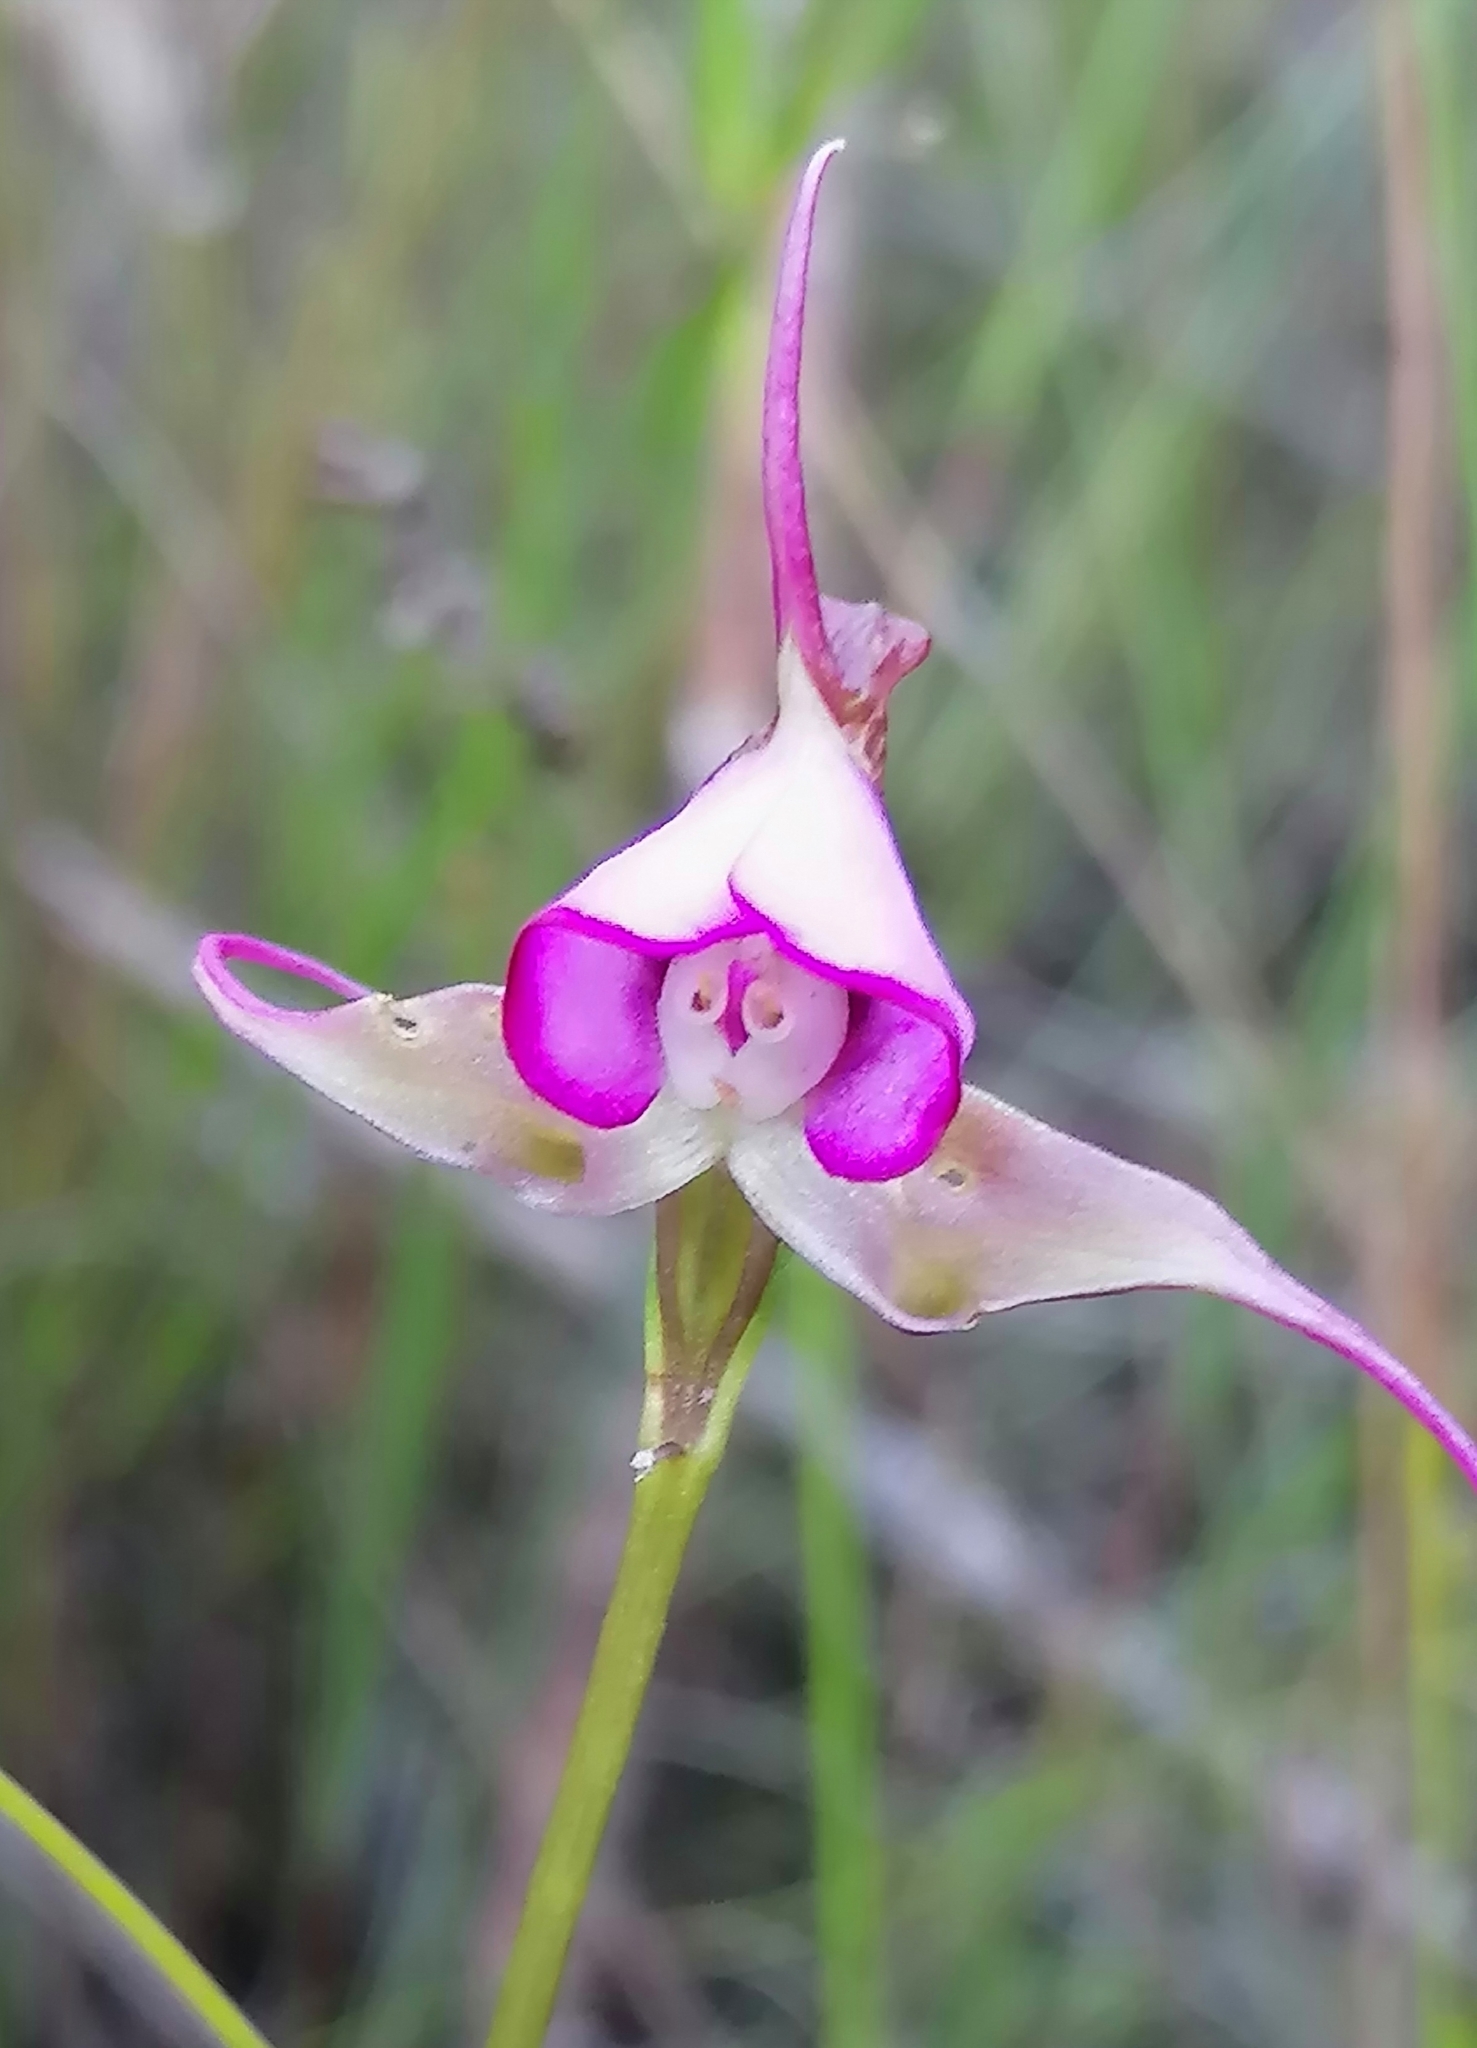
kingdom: Plantae
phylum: Tracheophyta
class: Liliopsida
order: Asparagales
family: Orchidaceae
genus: Disperis
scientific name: Disperis capensis
